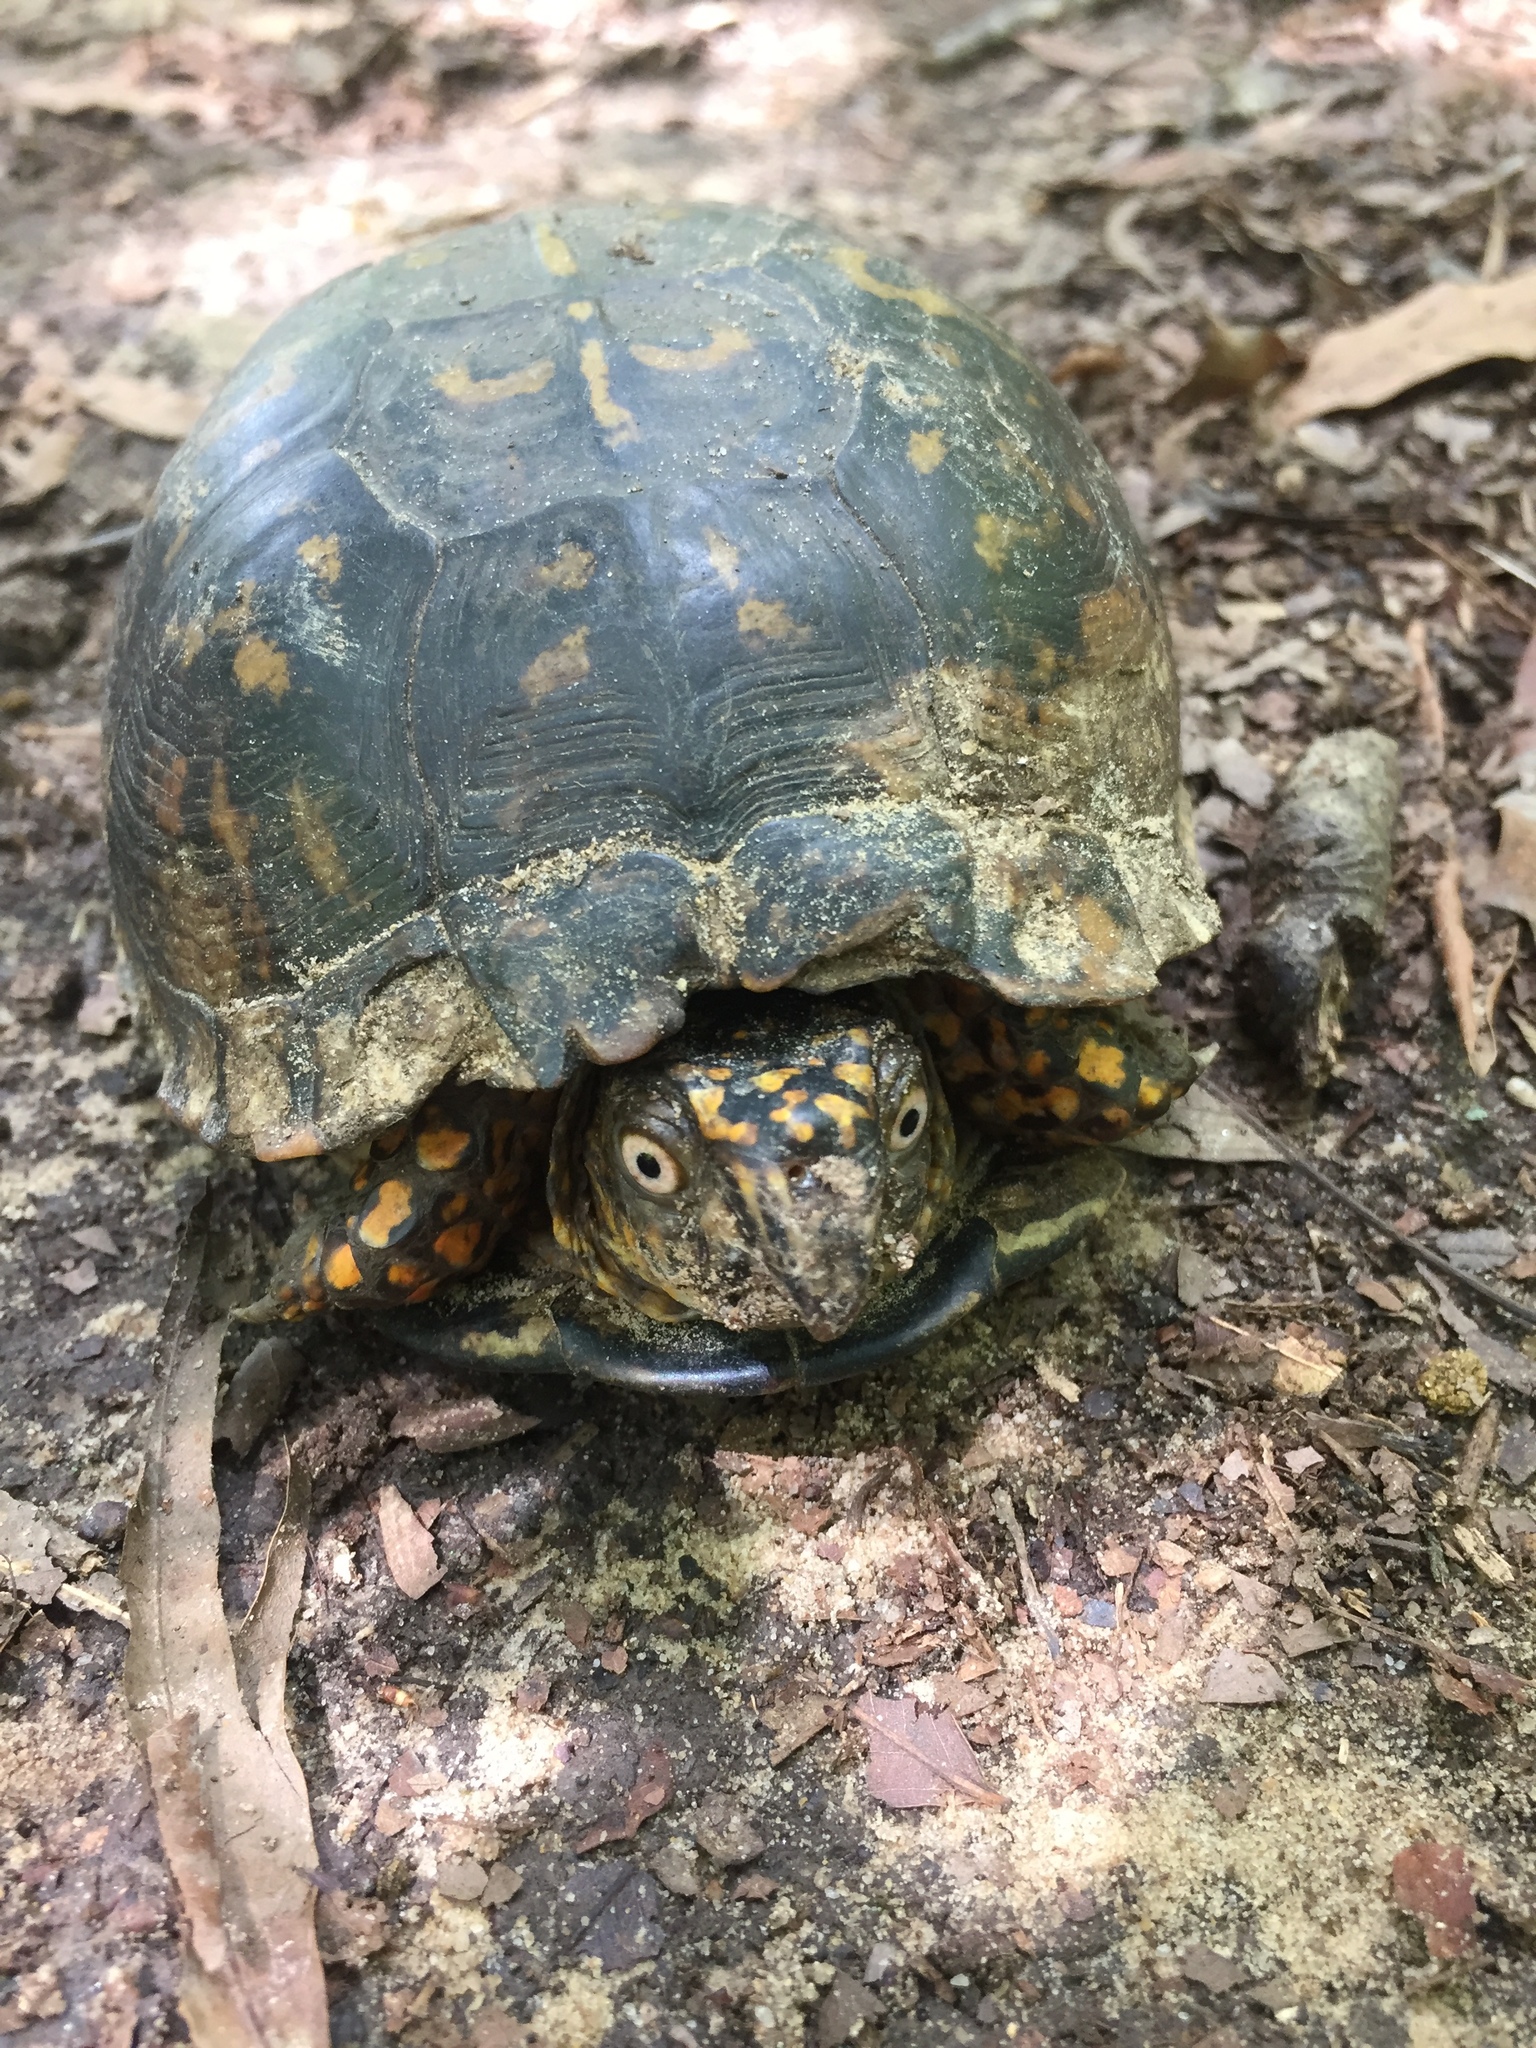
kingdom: Animalia
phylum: Chordata
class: Testudines
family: Emydidae
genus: Terrapene
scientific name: Terrapene carolina
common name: Common box turtle
